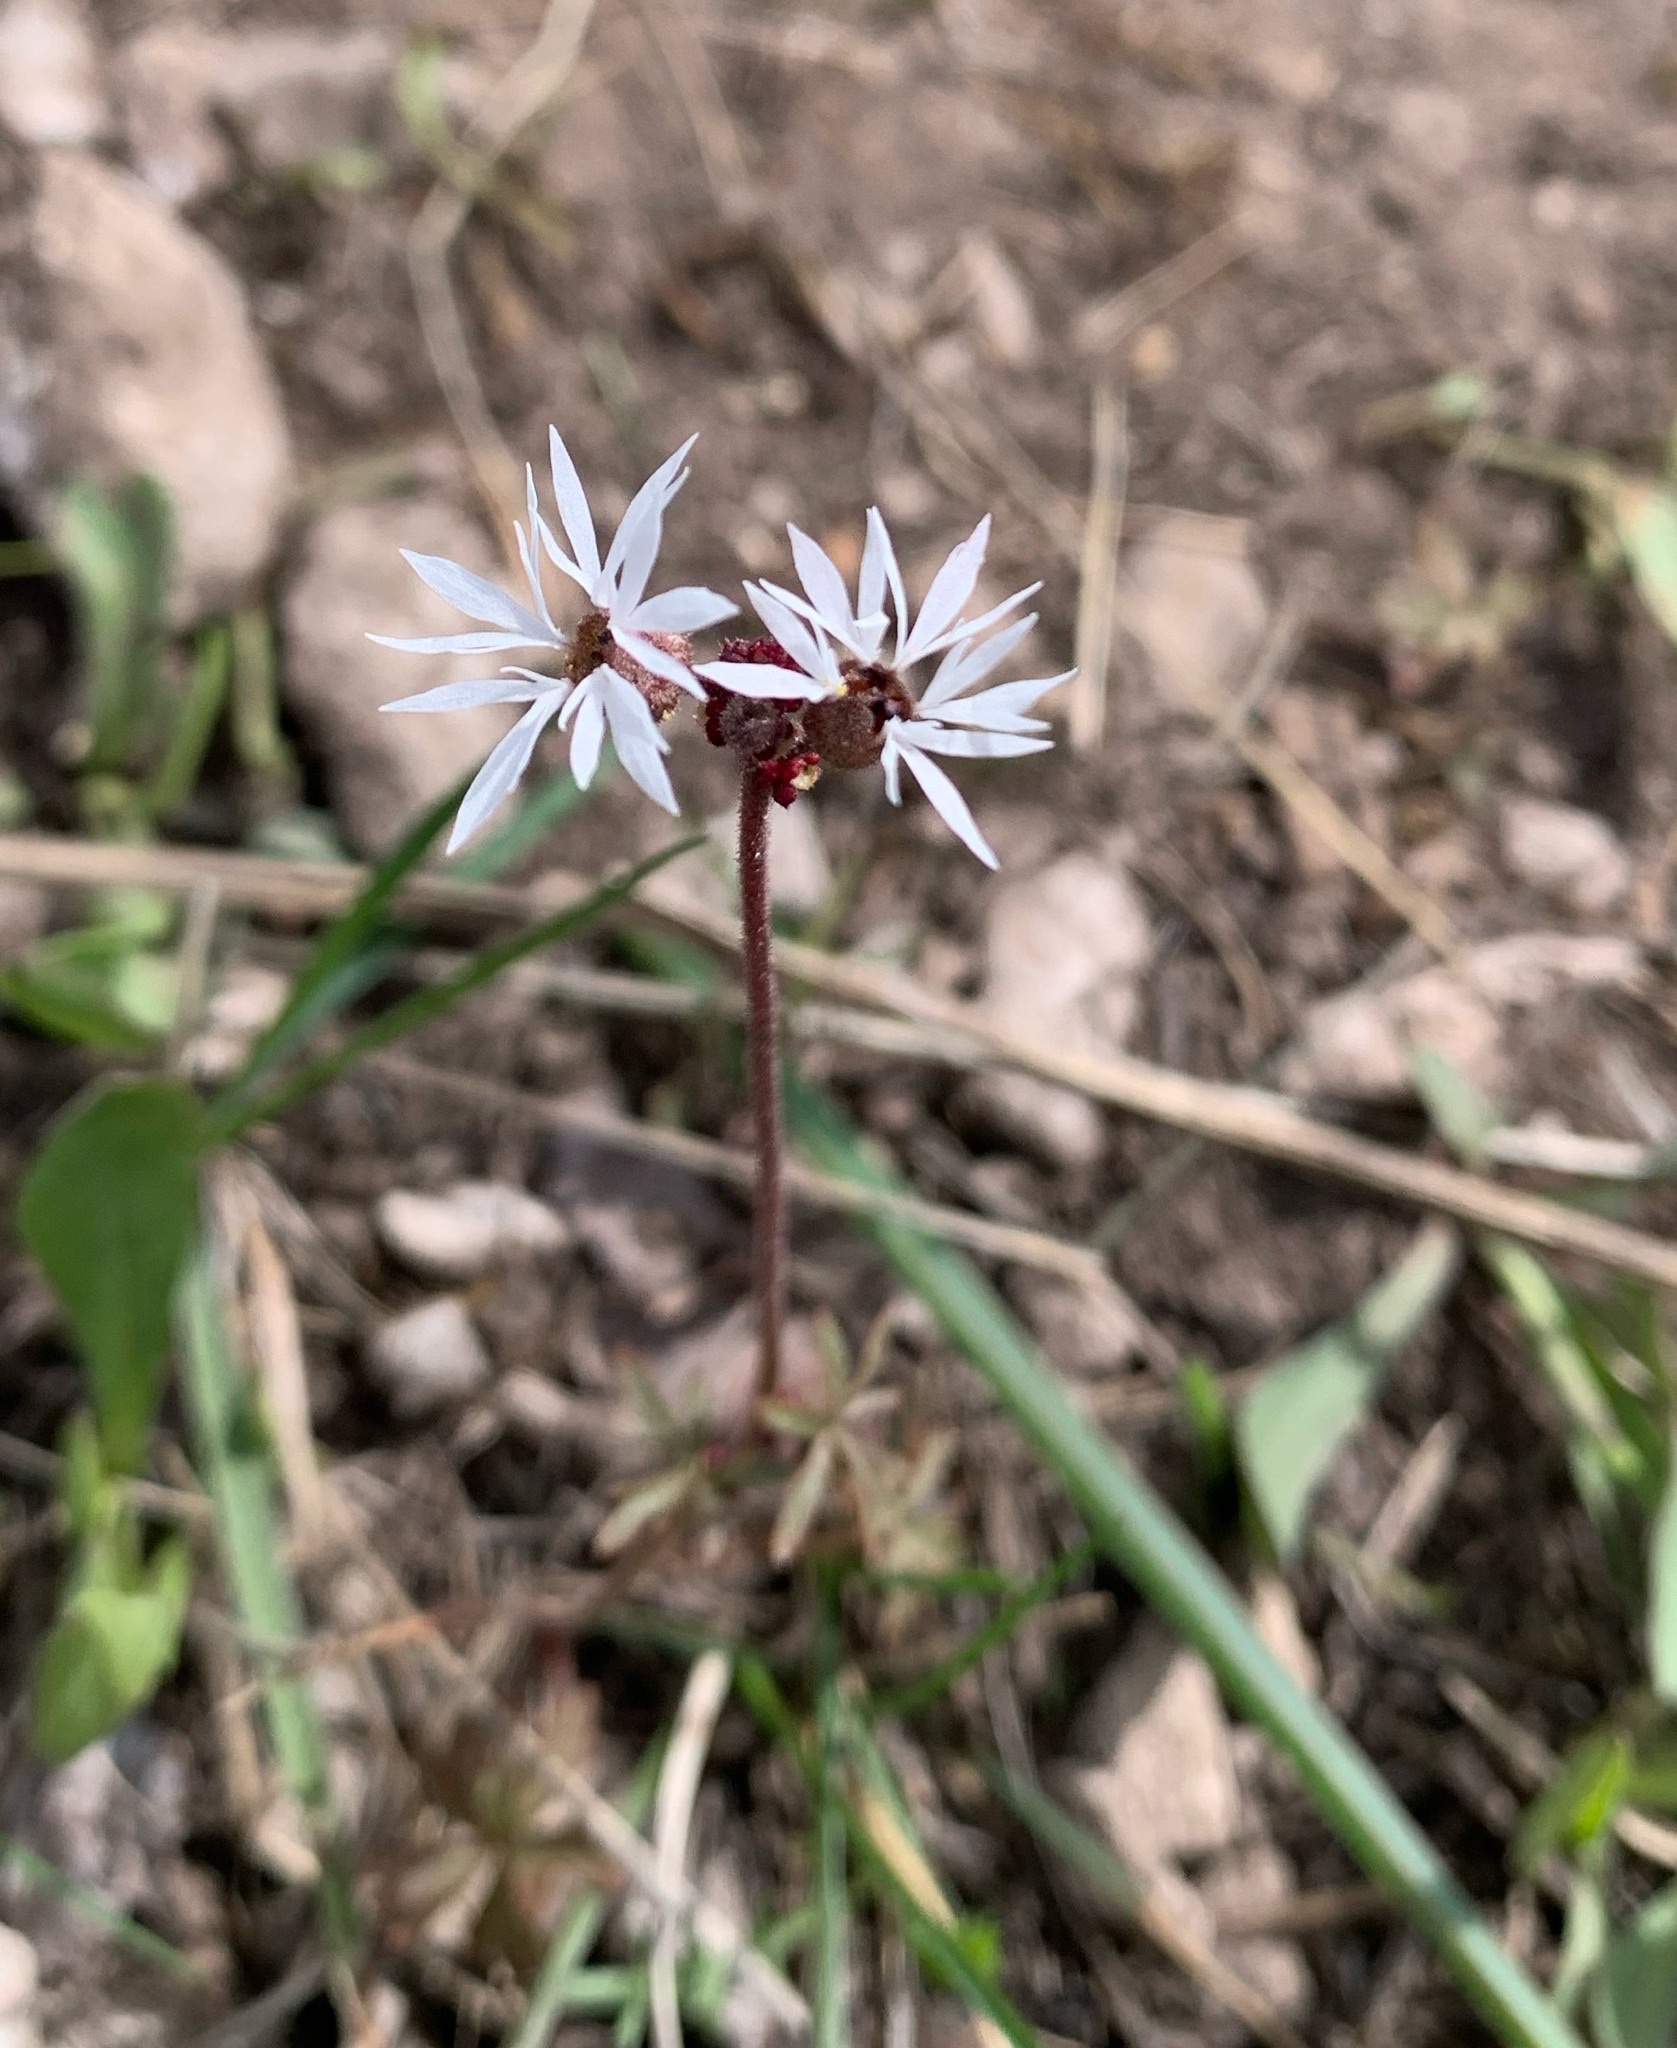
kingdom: Plantae
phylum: Tracheophyta
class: Magnoliopsida
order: Saxifragales
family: Saxifragaceae
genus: Lithophragma
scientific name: Lithophragma glabrum
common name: Bulbous prairie-star
